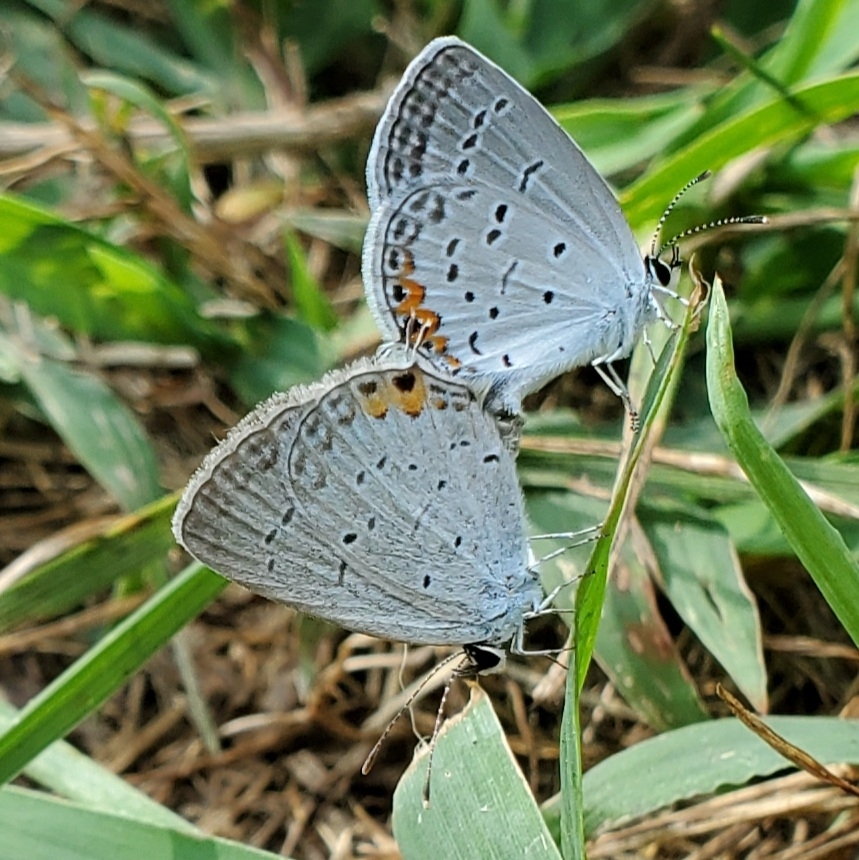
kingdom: Animalia
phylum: Arthropoda
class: Insecta
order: Lepidoptera
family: Lycaenidae
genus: Elkalyce
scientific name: Elkalyce comyntas
